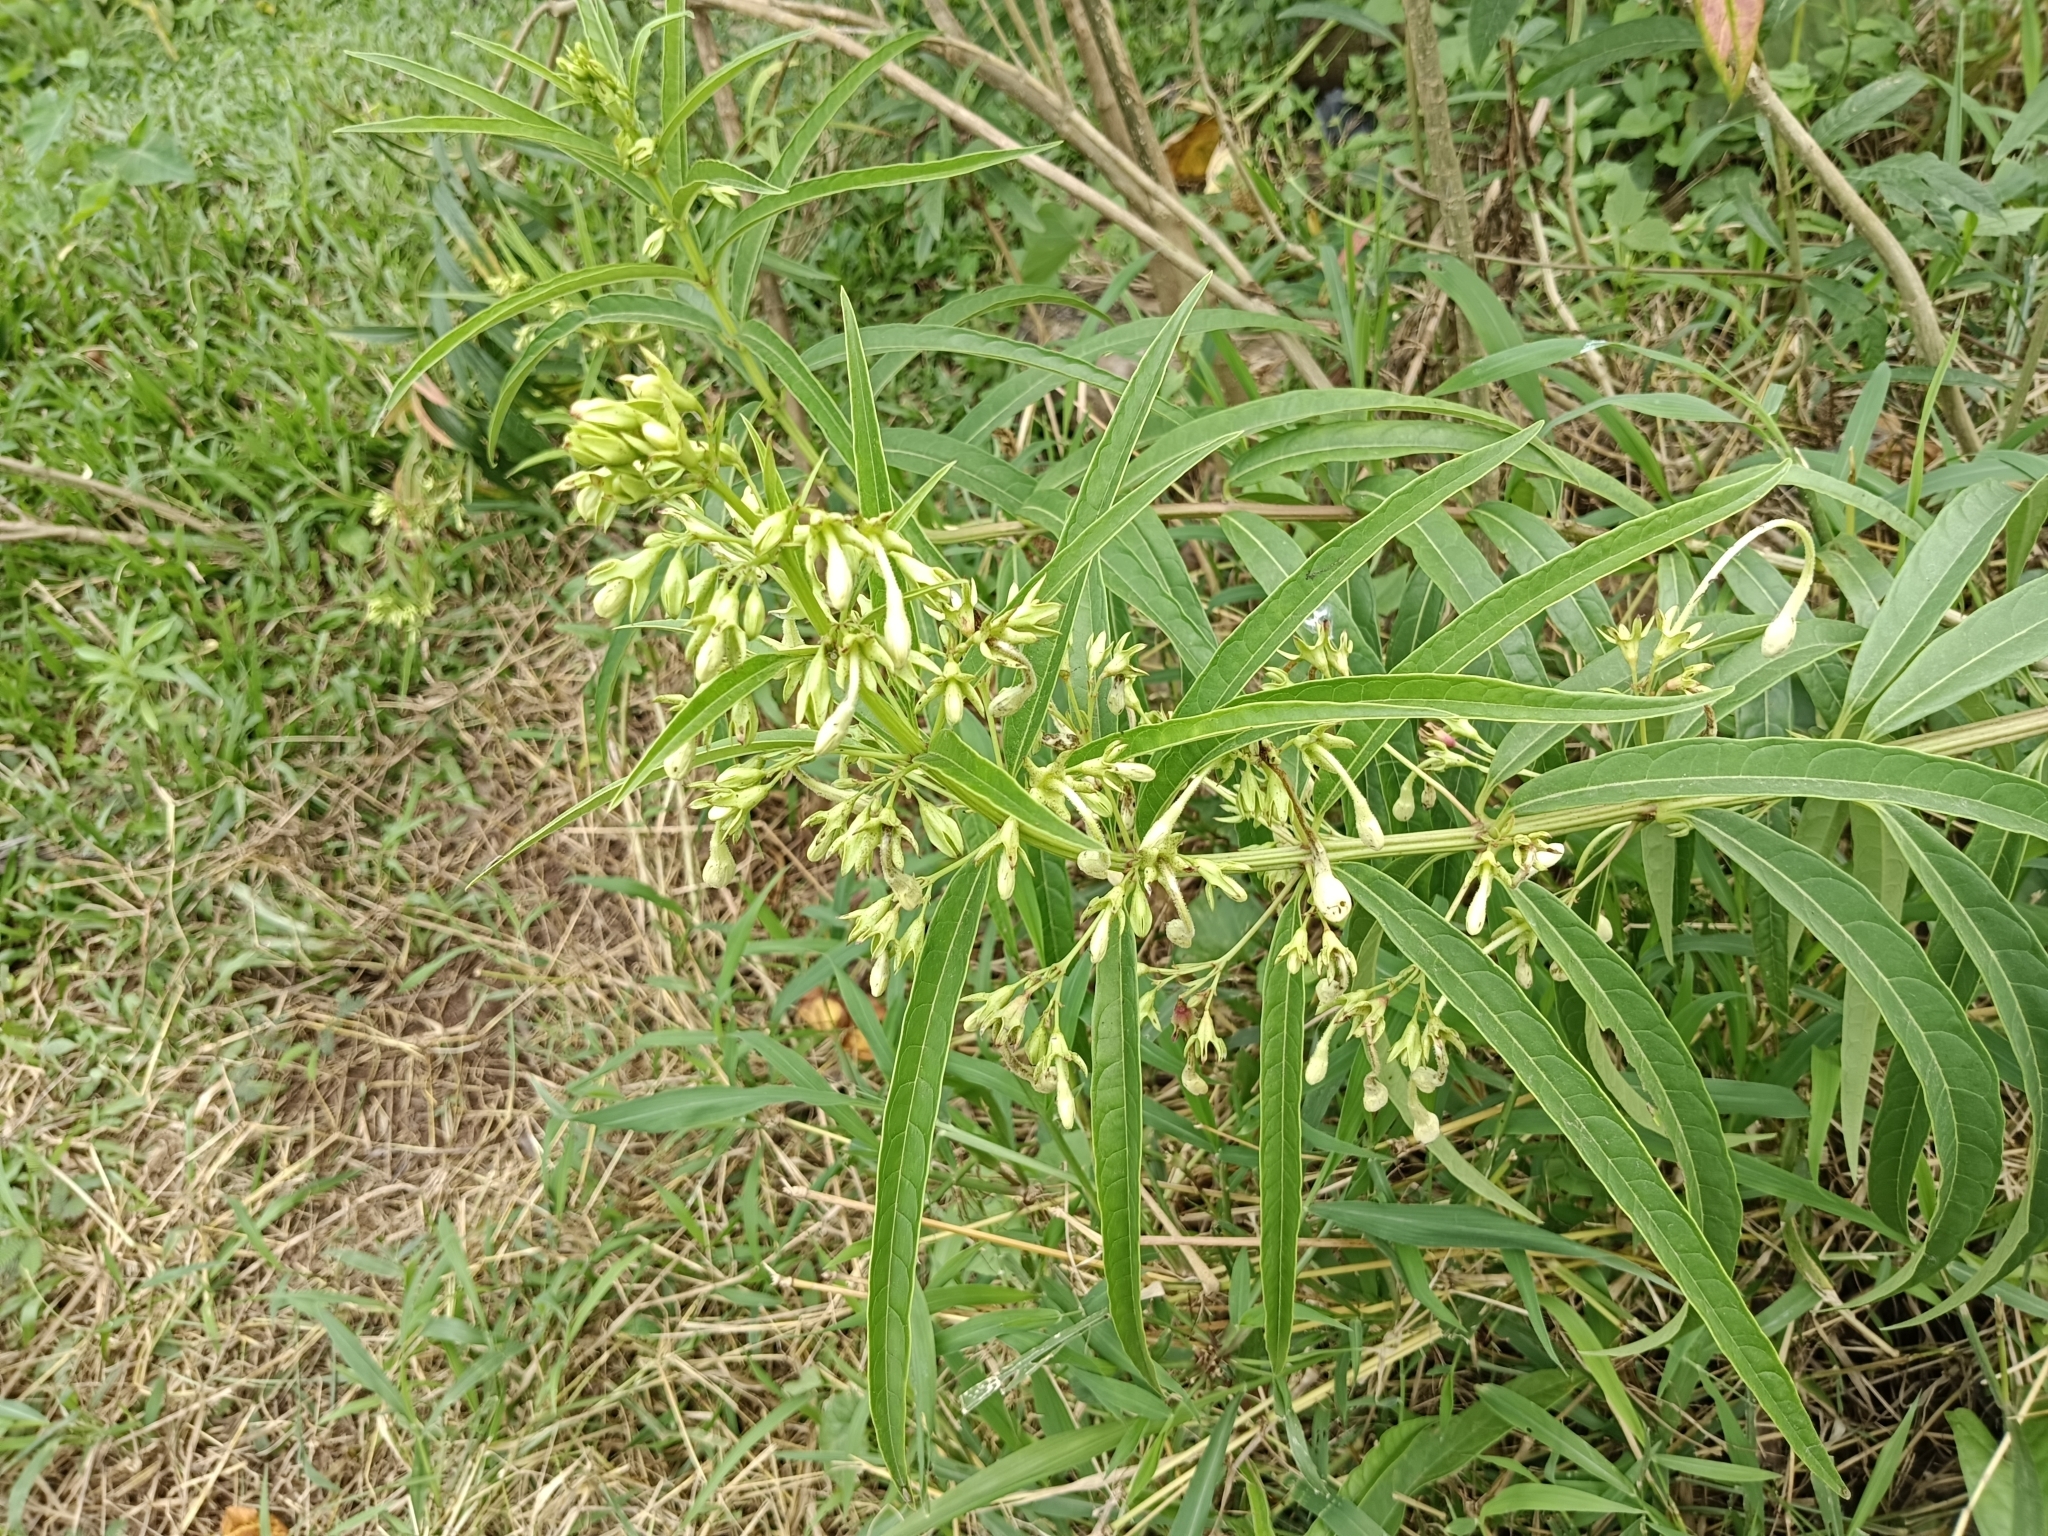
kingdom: Plantae
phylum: Tracheophyta
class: Magnoliopsida
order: Lamiales
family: Lamiaceae
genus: Clerodendrum
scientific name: Clerodendrum indicum
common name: Turk's turbin
